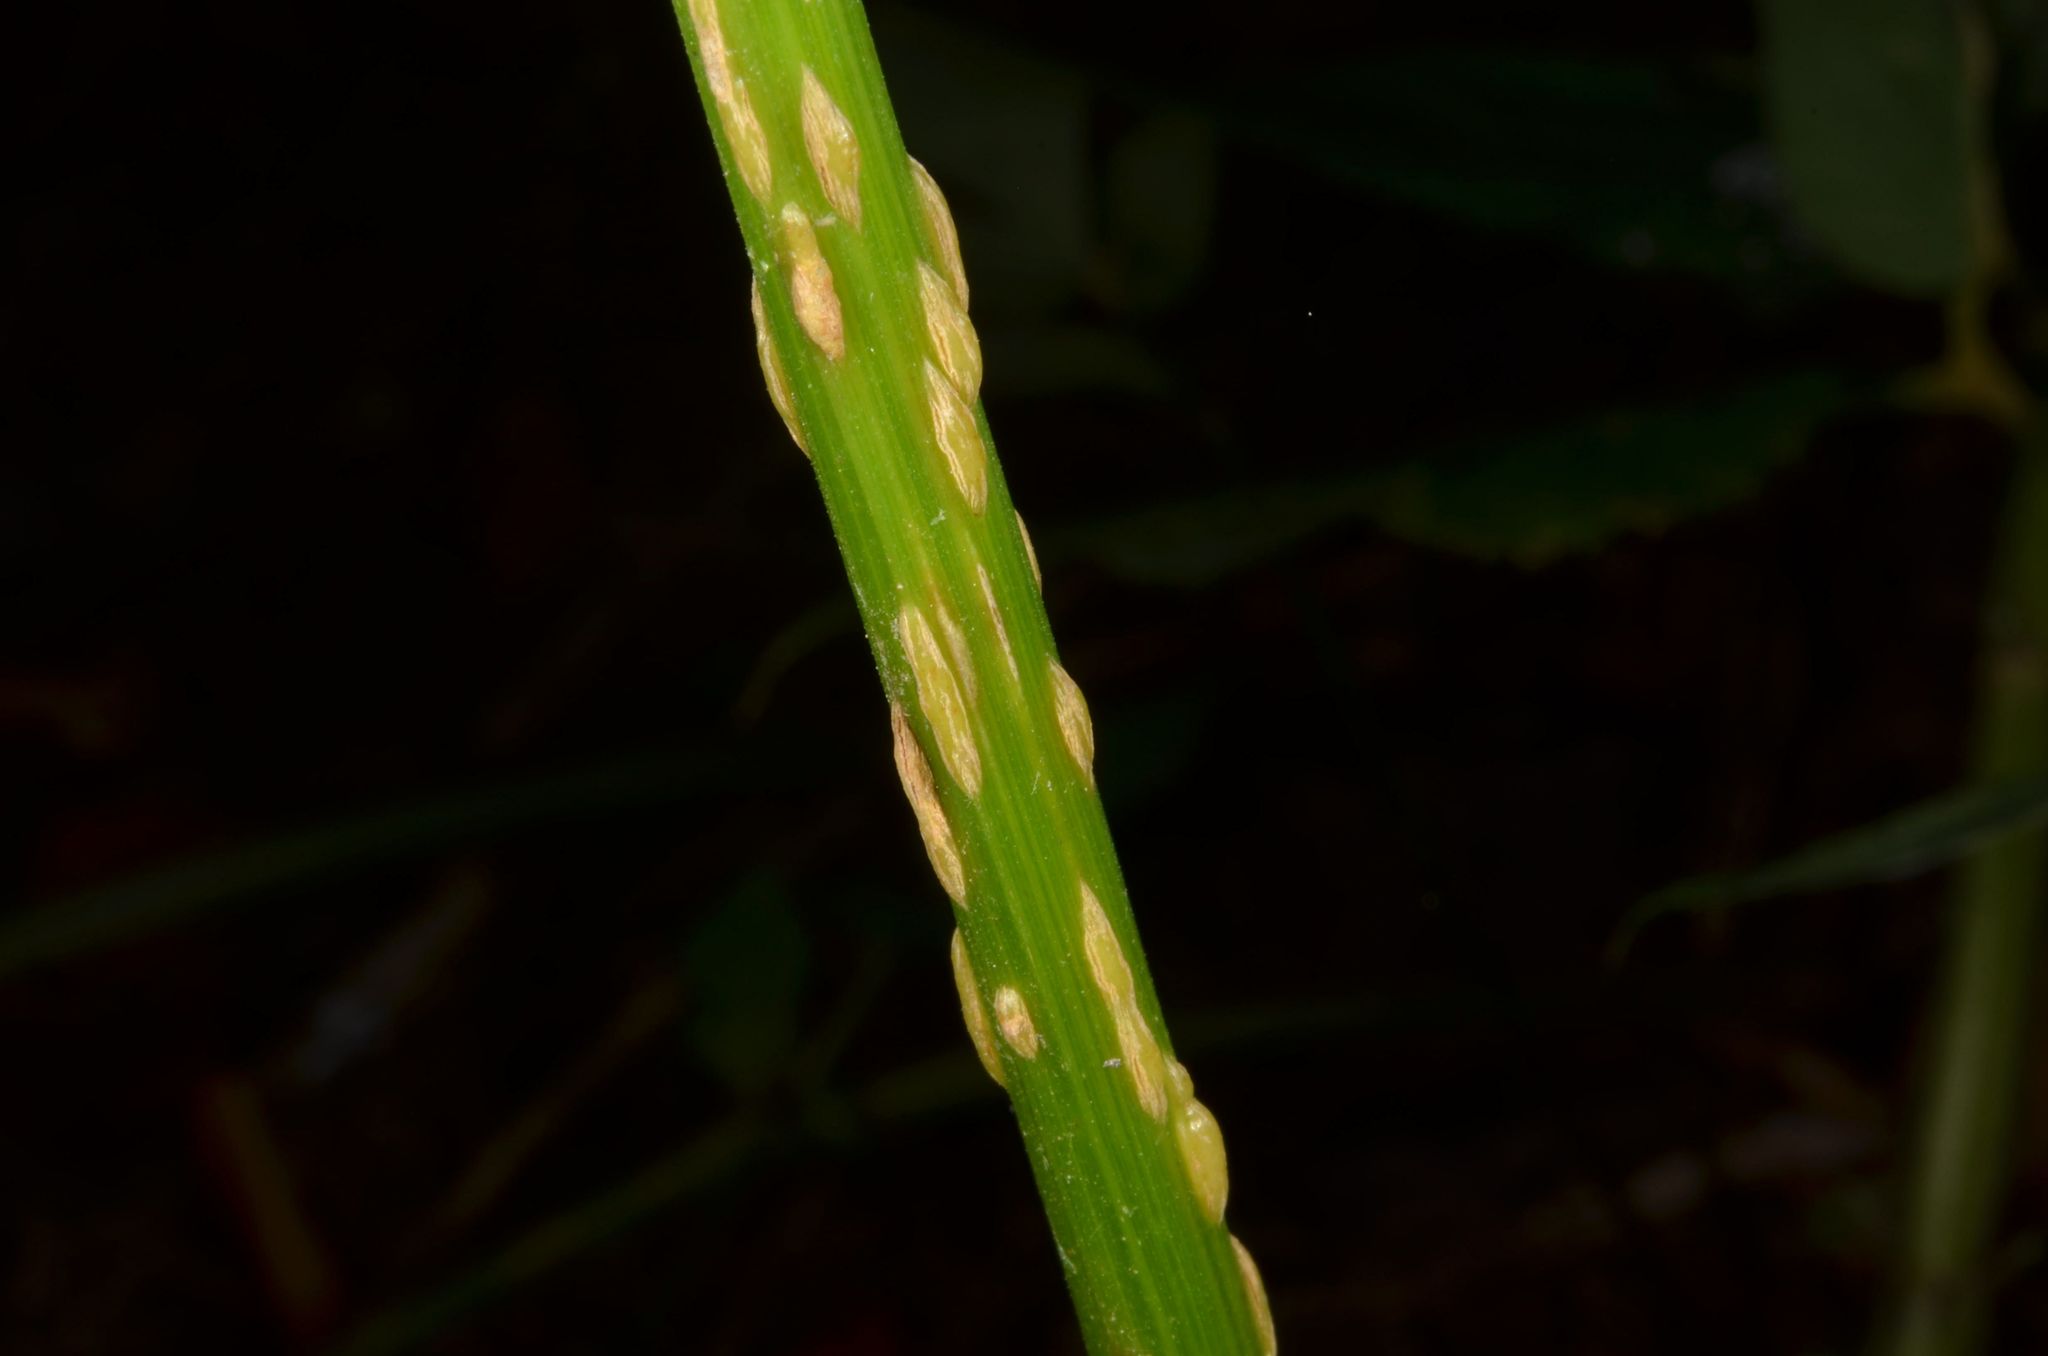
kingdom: Fungi
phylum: Ascomycota
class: Taphrinomycetes
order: Taphrinales
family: Taphrinaceae
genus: Protomyces
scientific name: Protomyces macrosporus
